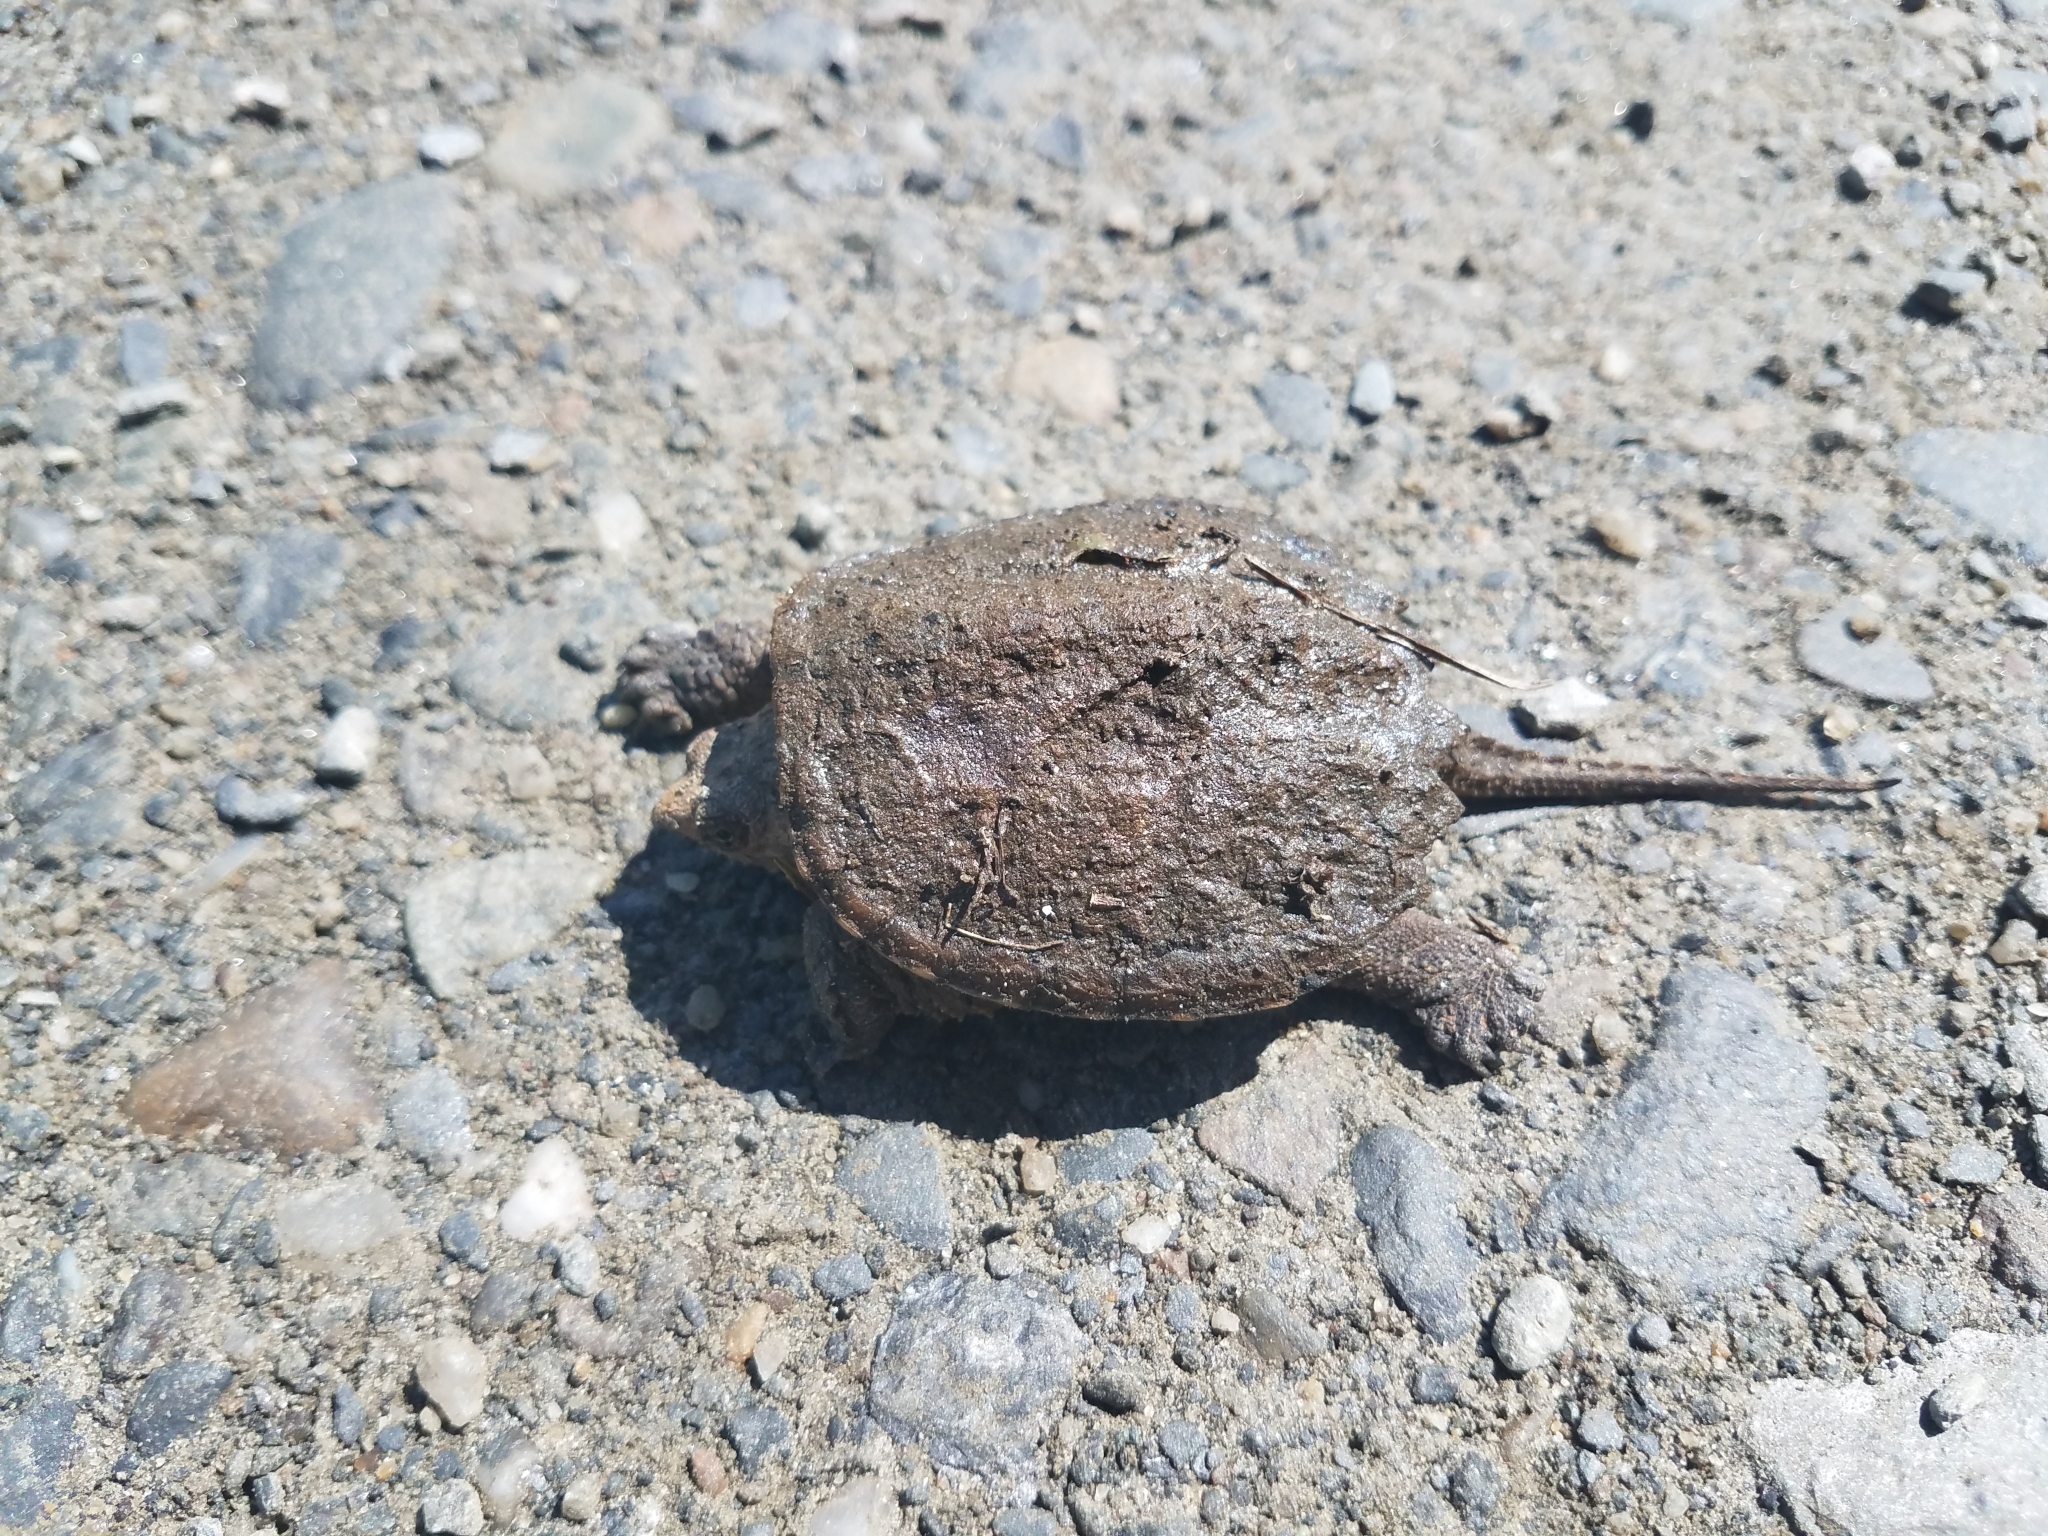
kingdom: Animalia
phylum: Chordata
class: Testudines
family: Chelydridae
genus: Chelydra
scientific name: Chelydra serpentina
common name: Common snapping turtle
